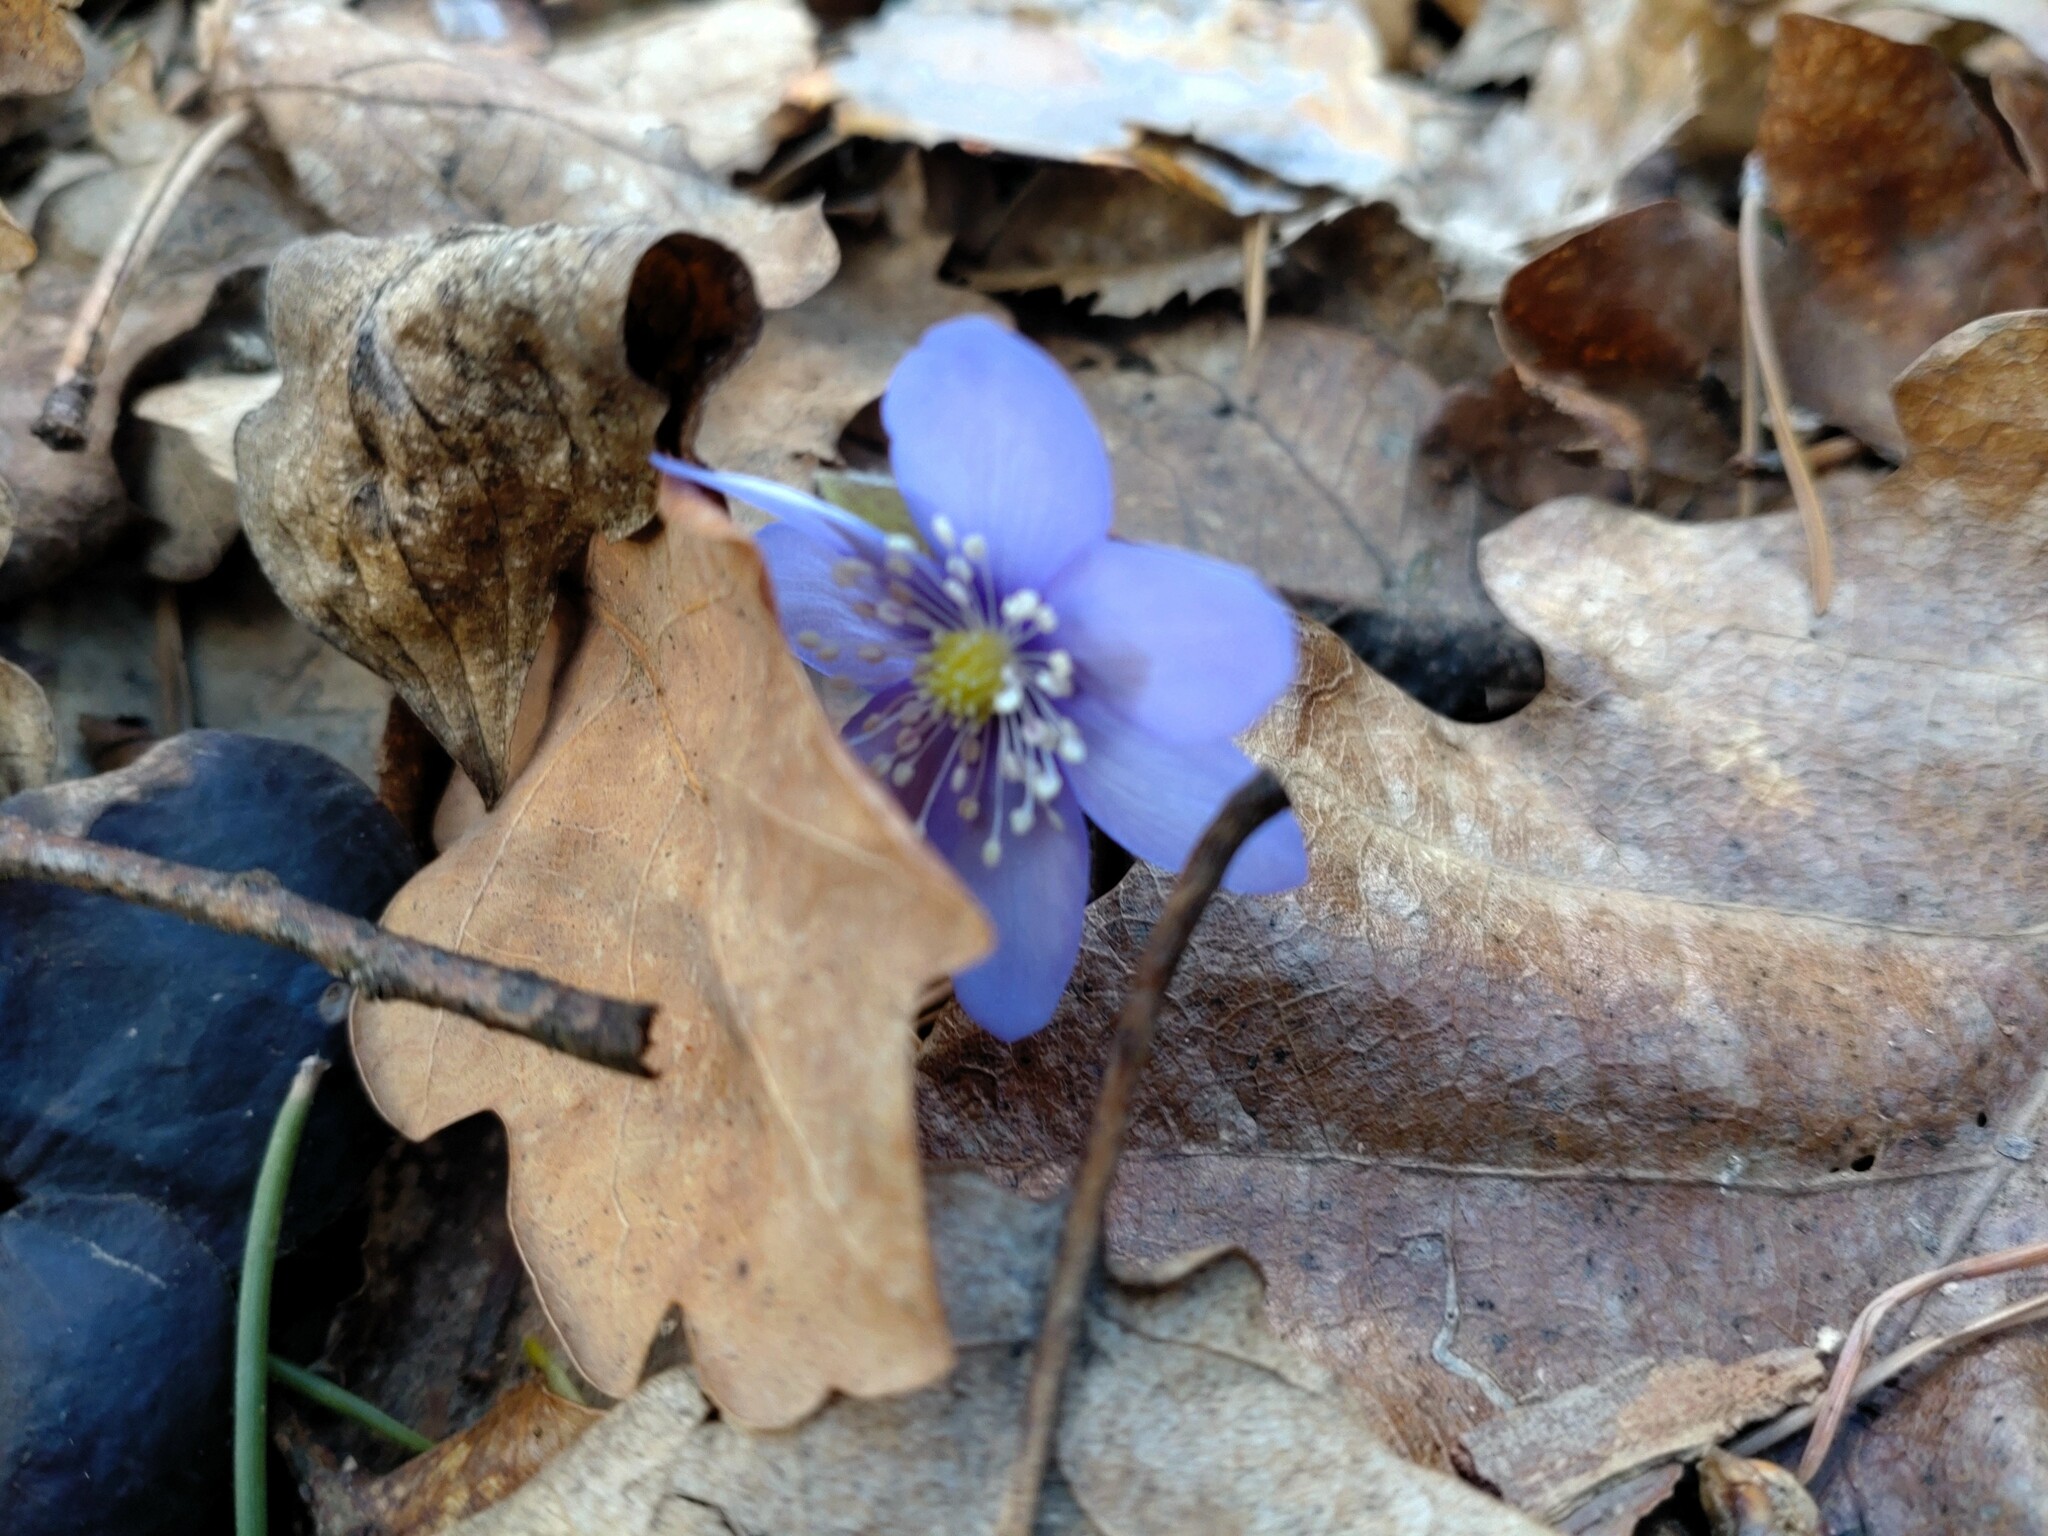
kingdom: Plantae
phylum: Tracheophyta
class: Magnoliopsida
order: Ranunculales
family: Ranunculaceae
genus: Hepatica
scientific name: Hepatica nobilis
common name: Liverleaf
